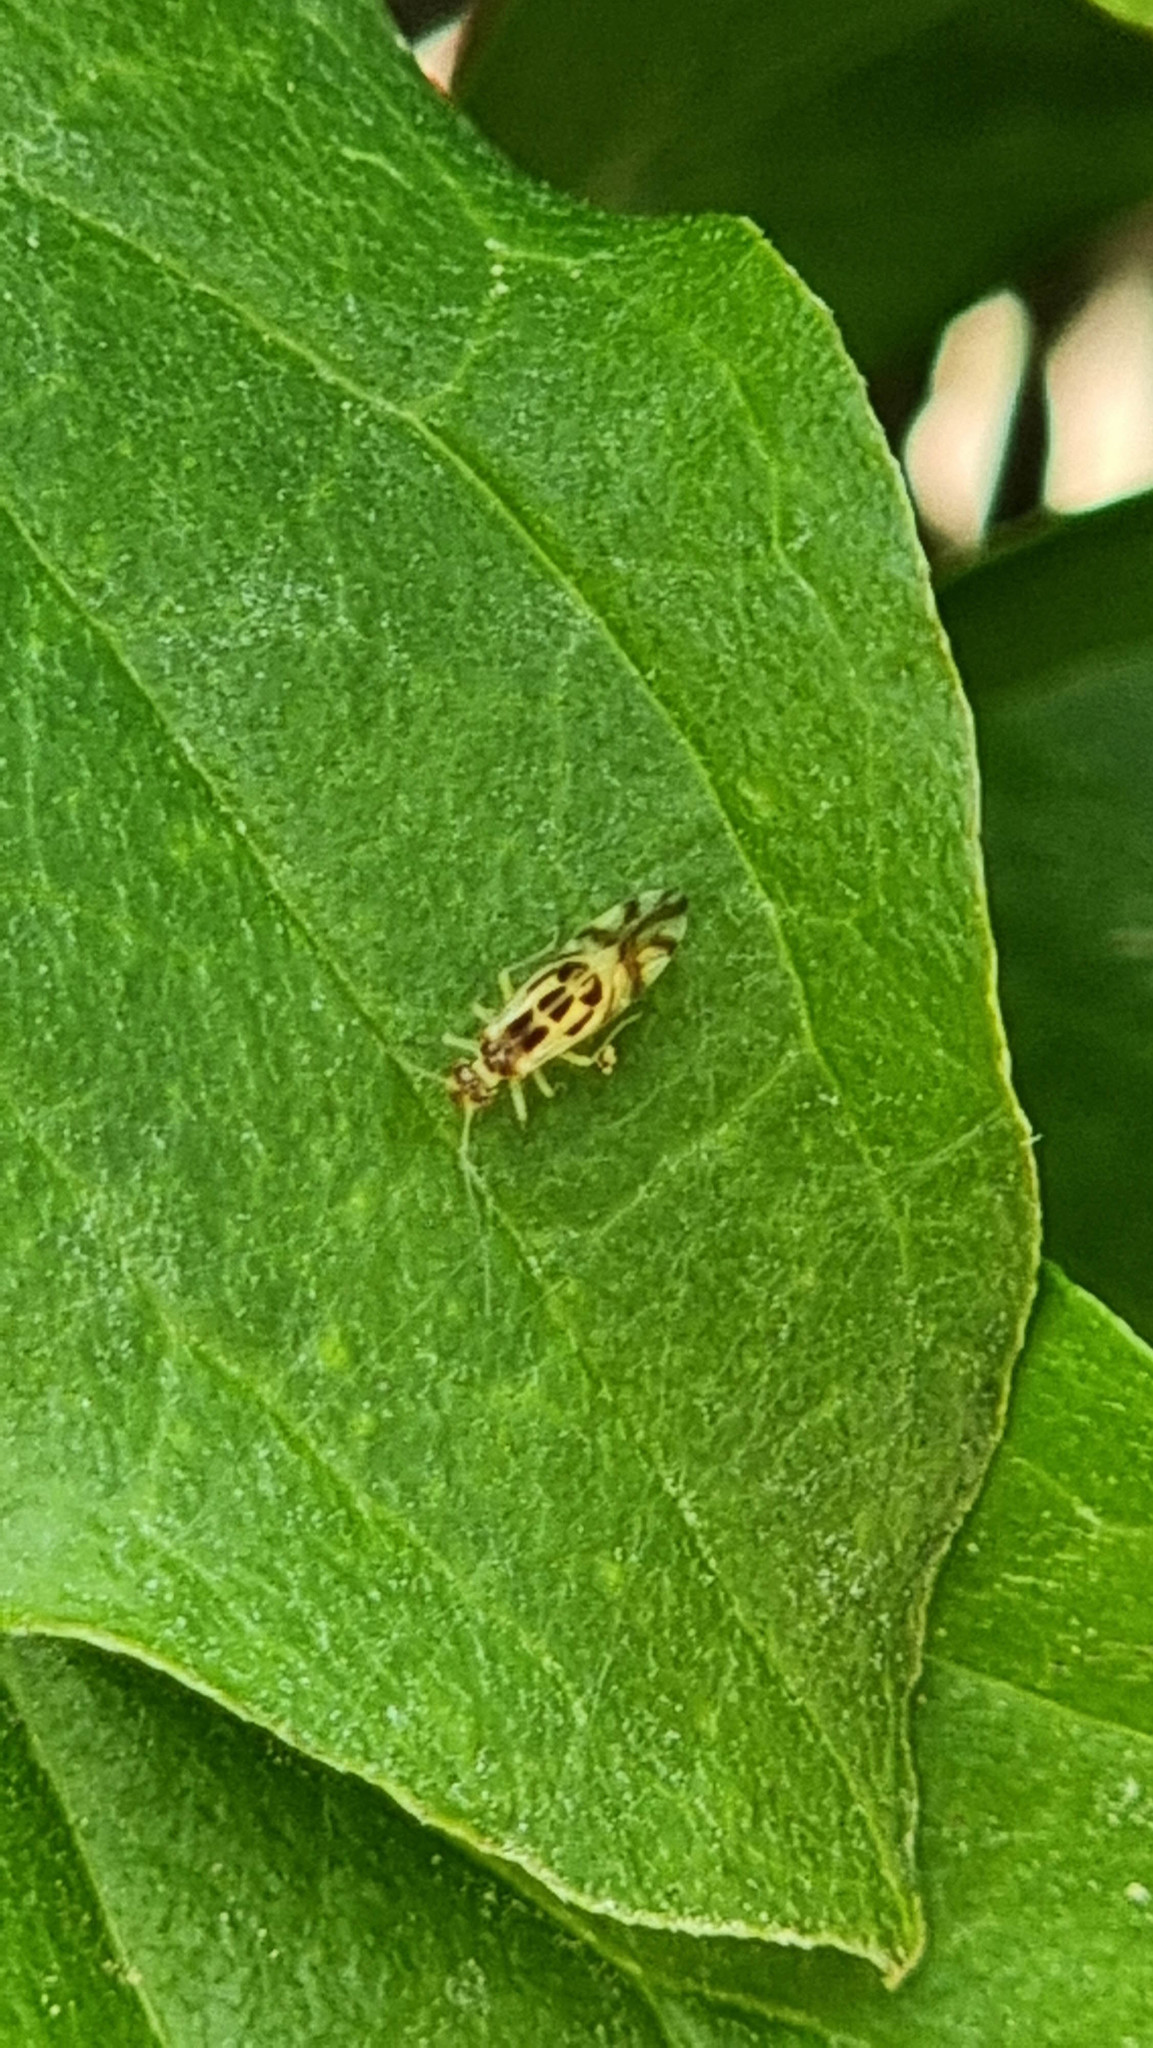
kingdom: Animalia
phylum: Arthropoda
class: Insecta
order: Psocodea
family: Stenopsocidae
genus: Graphopsocus
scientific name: Graphopsocus cruciatus
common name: Lizard bark louse
